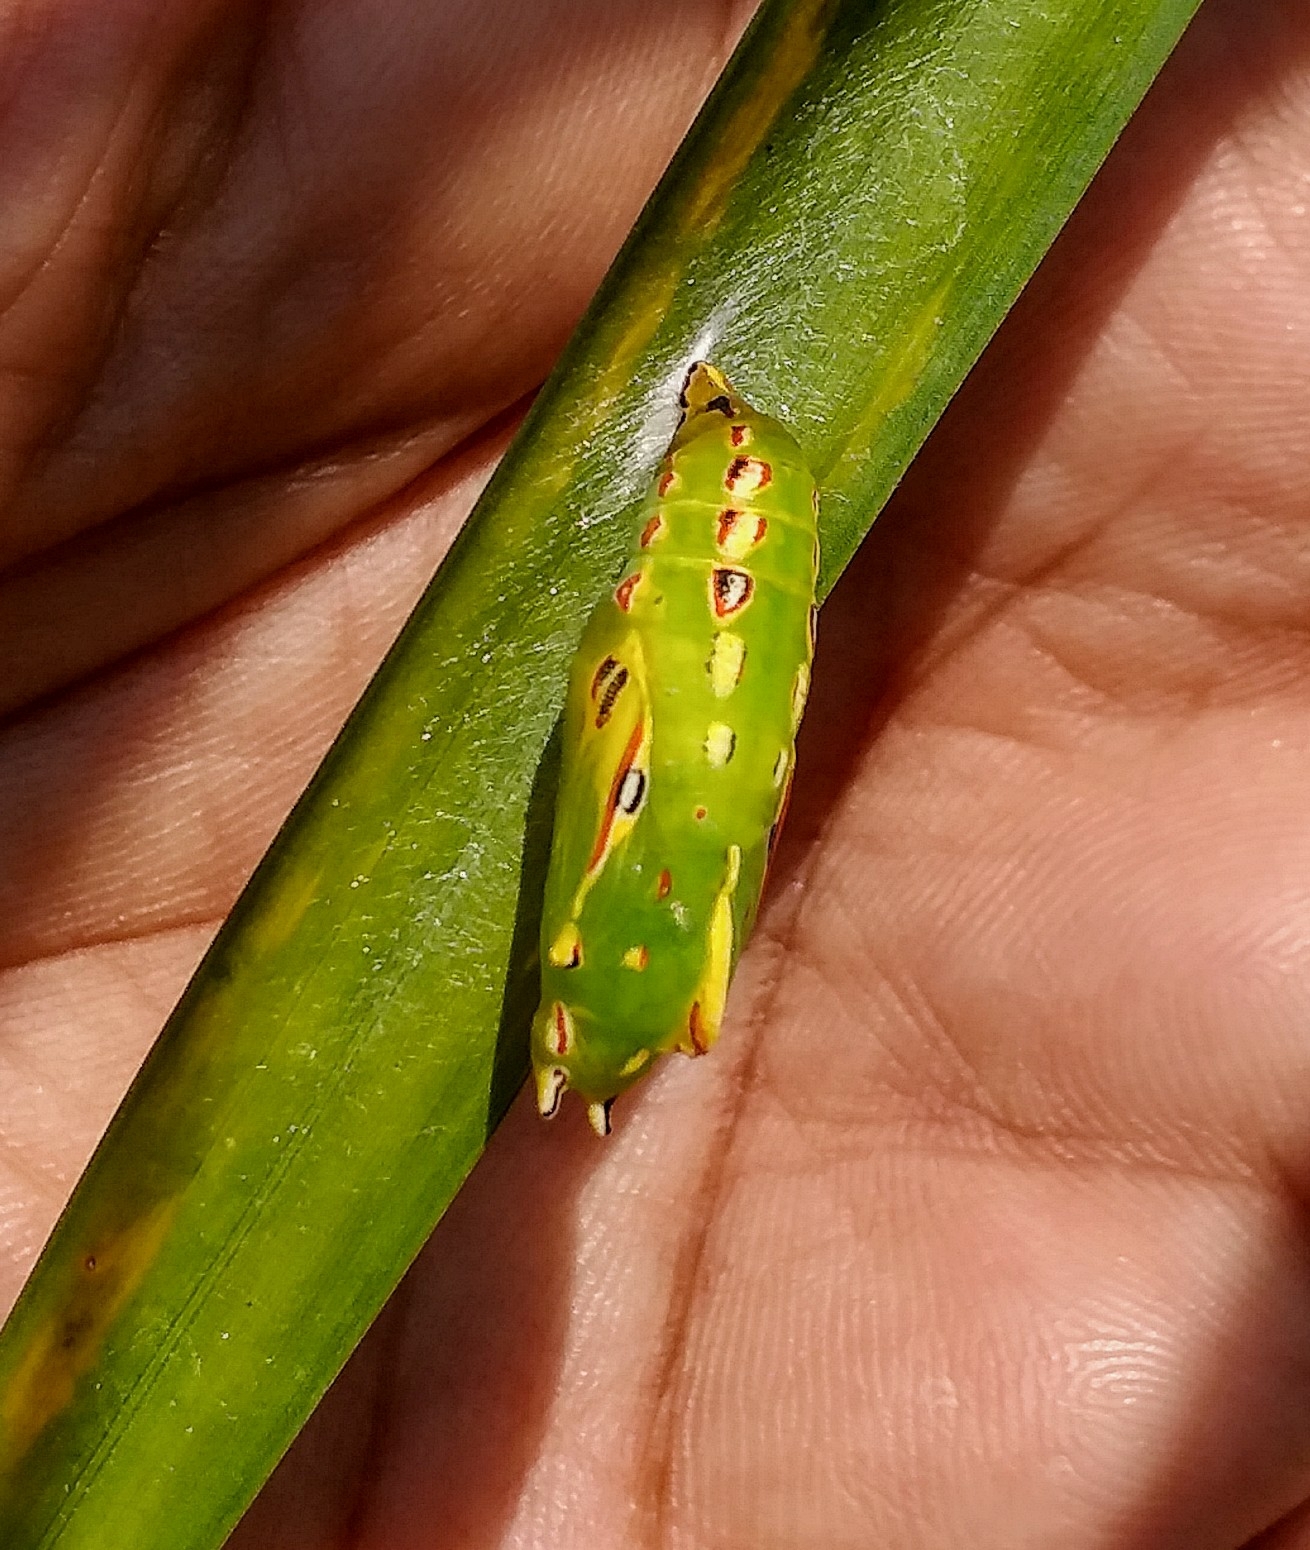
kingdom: Animalia
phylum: Arthropoda
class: Insecta
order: Lepidoptera
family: Nymphalidae
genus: Elymnias
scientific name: Elymnias caudata
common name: Tailed palmfly
